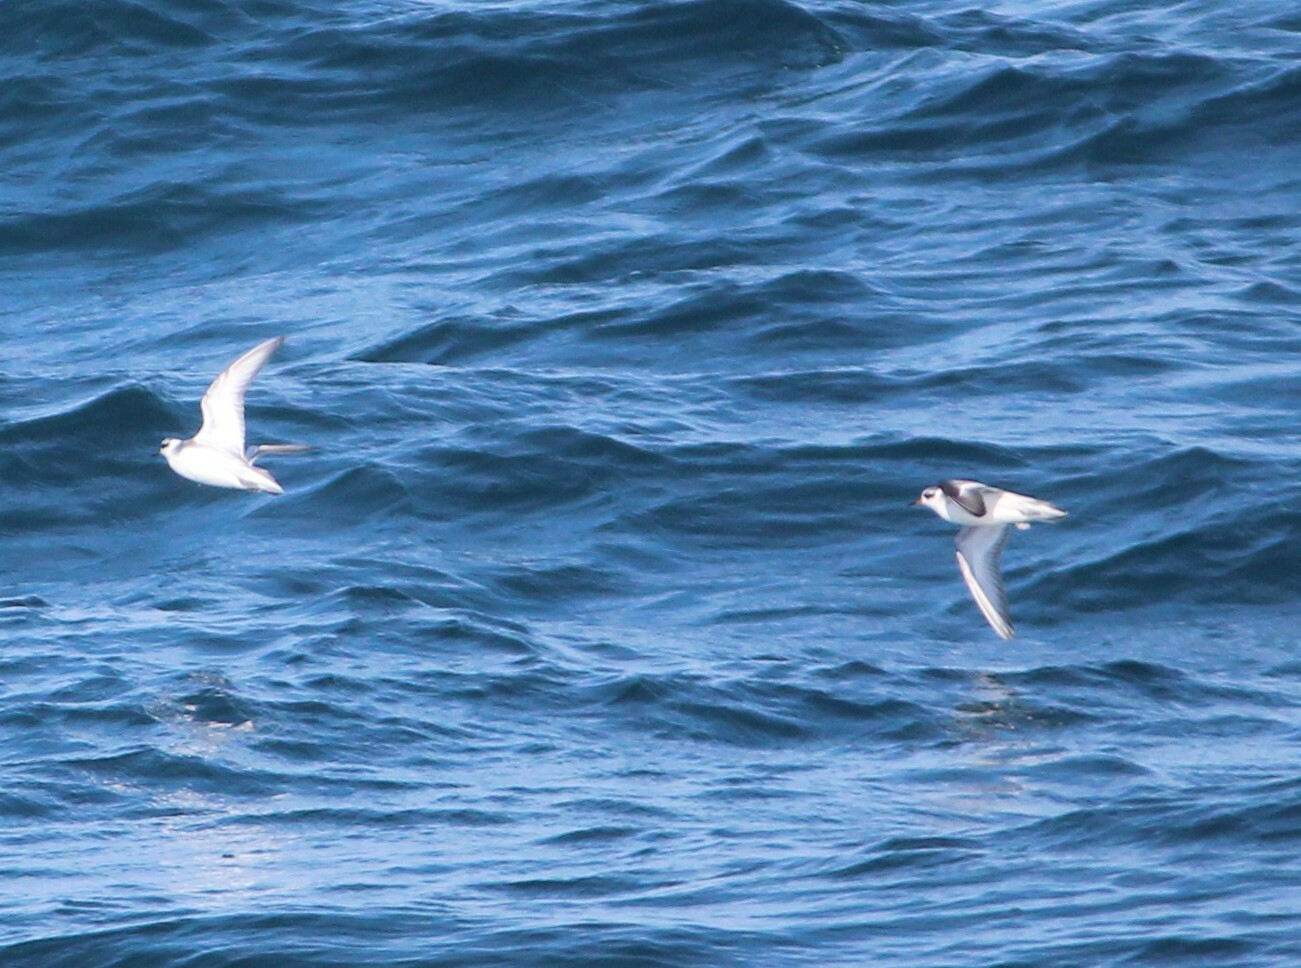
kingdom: Animalia
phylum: Chordata
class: Aves
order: Charadriiformes
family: Scolopacidae
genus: Phalaropus
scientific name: Phalaropus fulicarius
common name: Red phalarope
